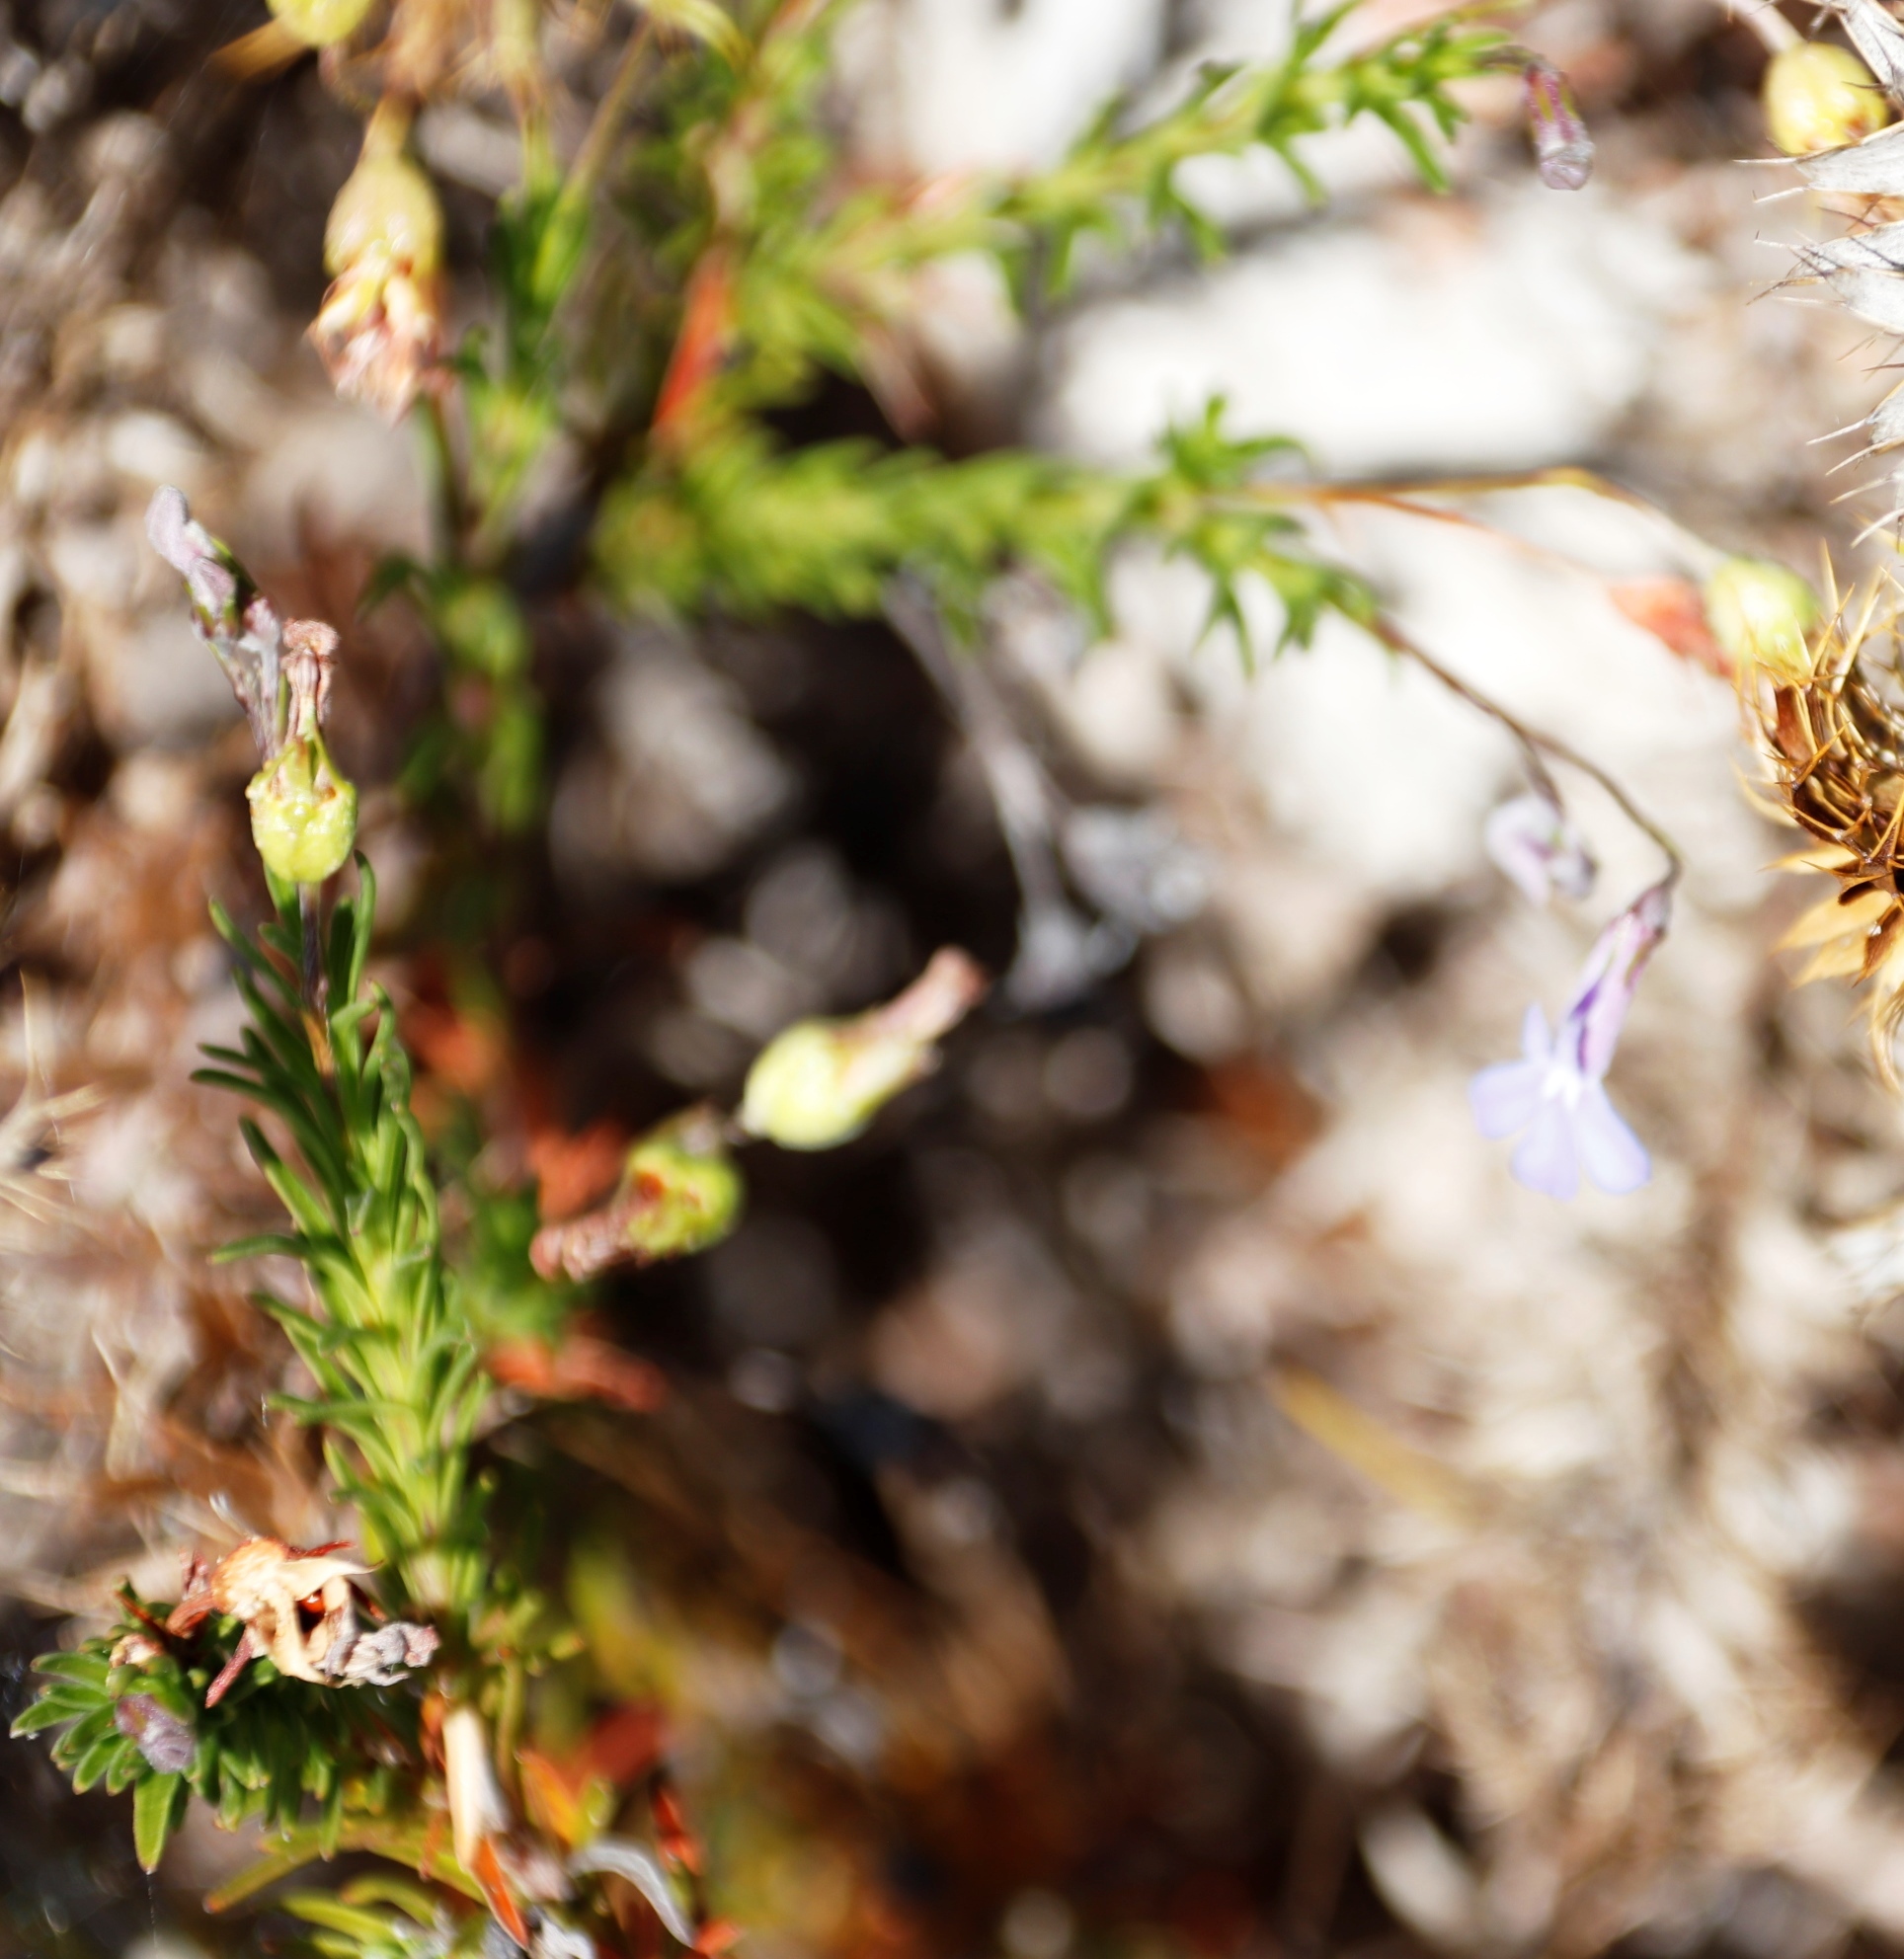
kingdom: Plantae
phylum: Tracheophyta
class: Magnoliopsida
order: Asterales
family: Campanulaceae
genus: Lobelia
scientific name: Lobelia pinifolia
